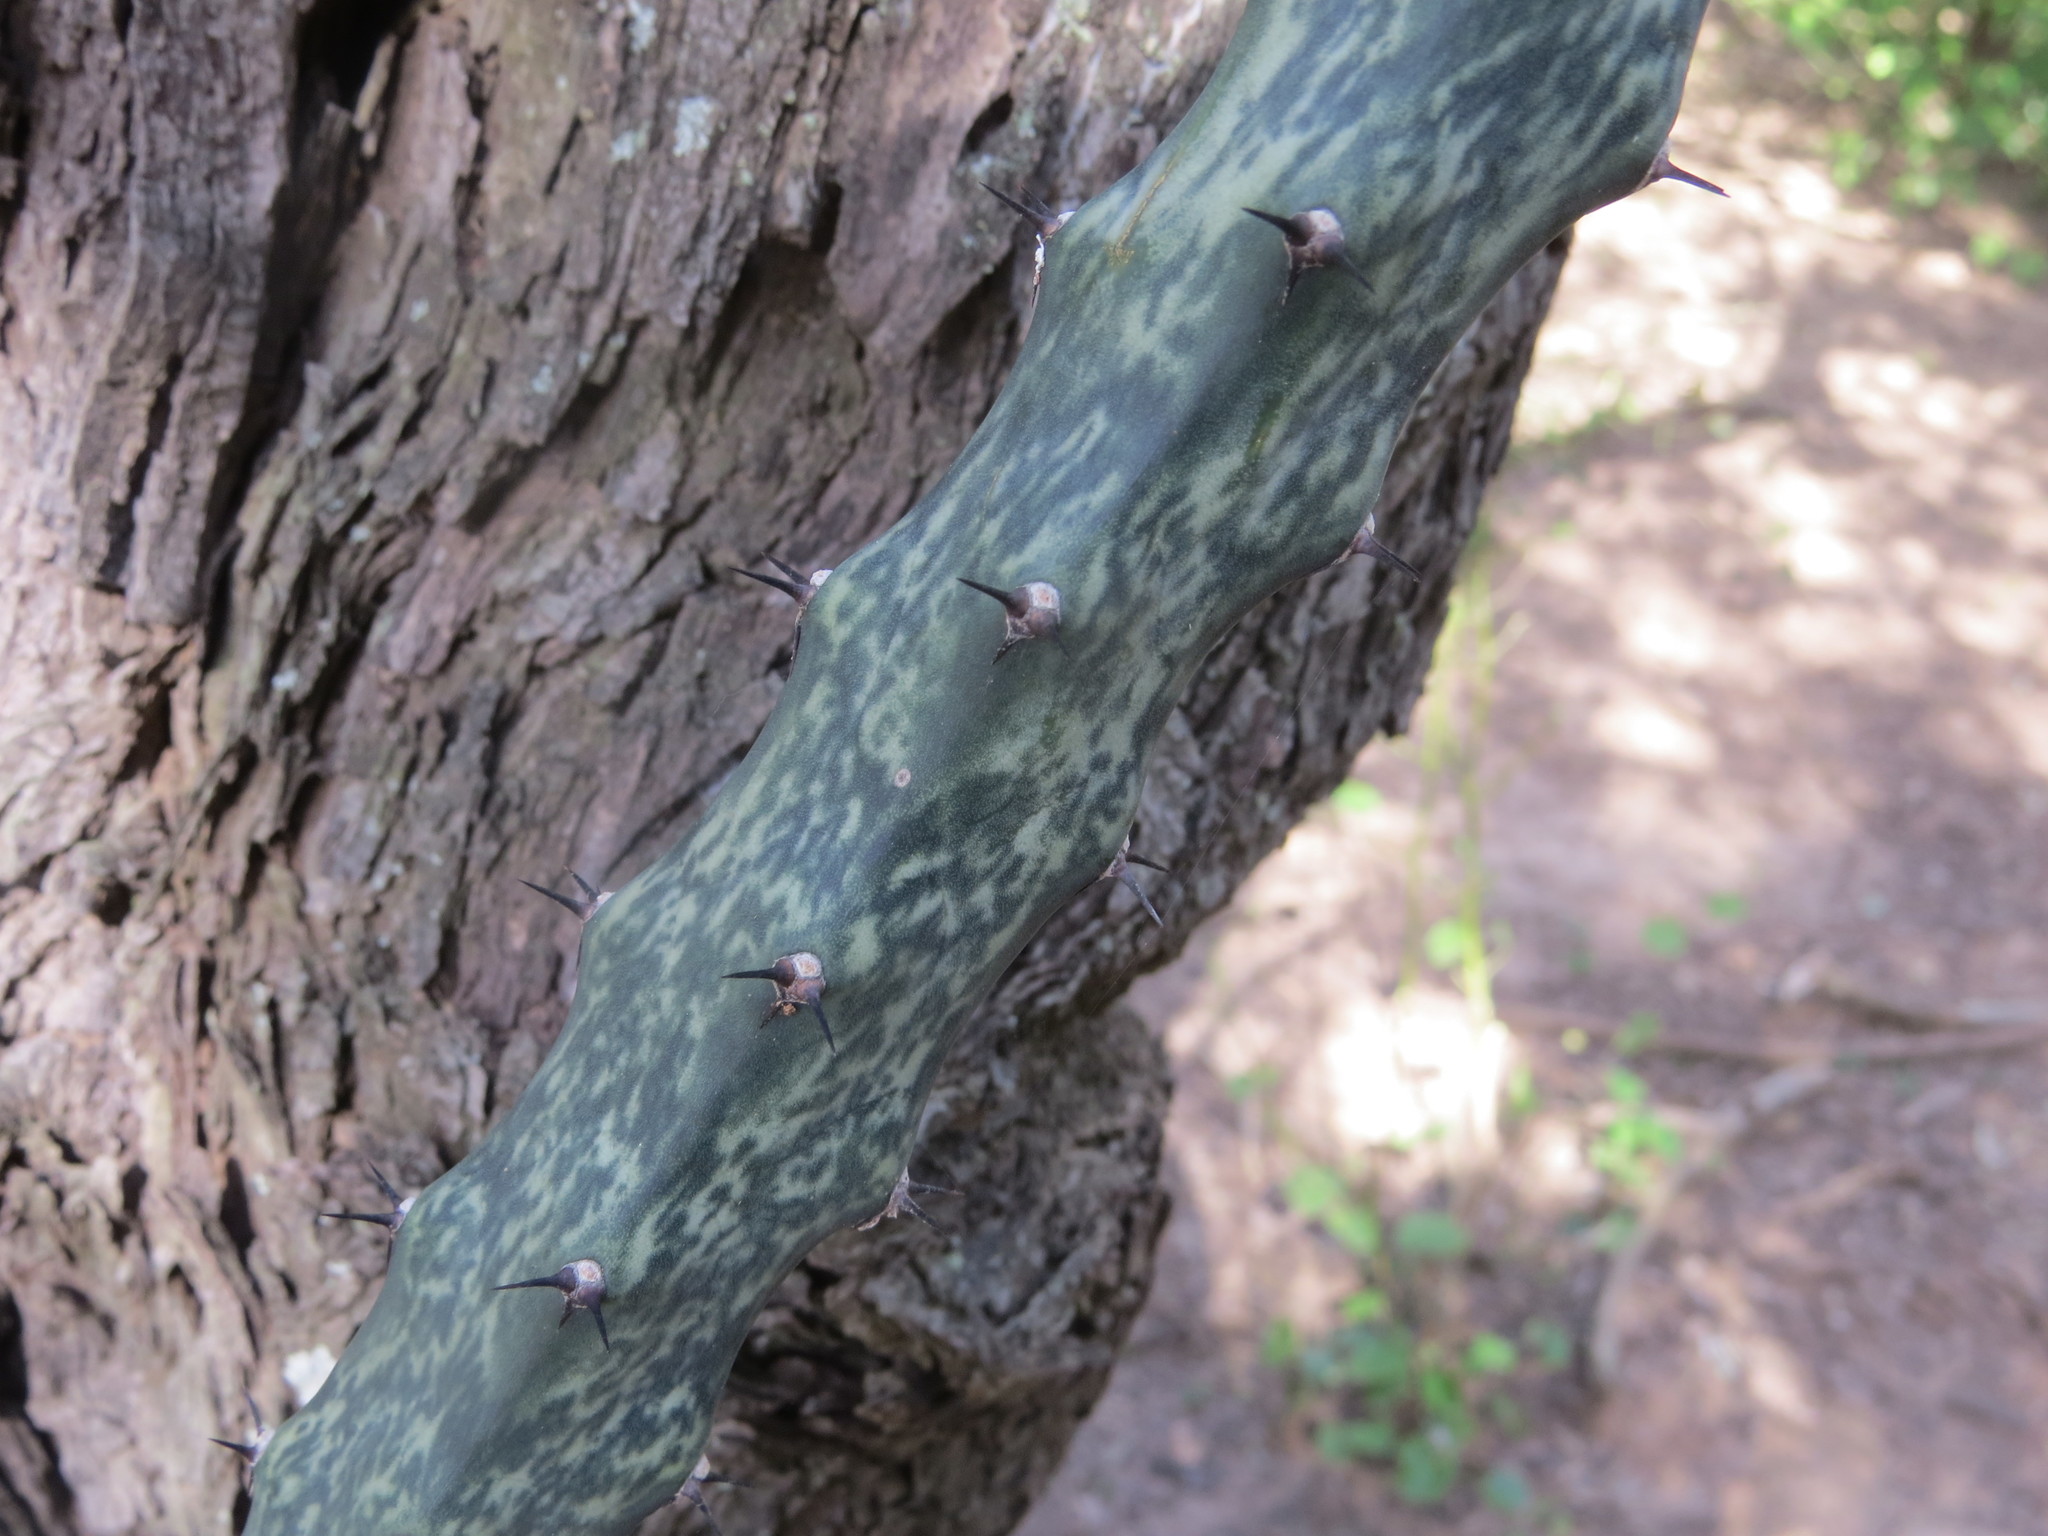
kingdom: Plantae
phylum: Tracheophyta
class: Magnoliopsida
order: Caryophyllales
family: Cactaceae
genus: Cereus
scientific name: Cereus spegazzinii
